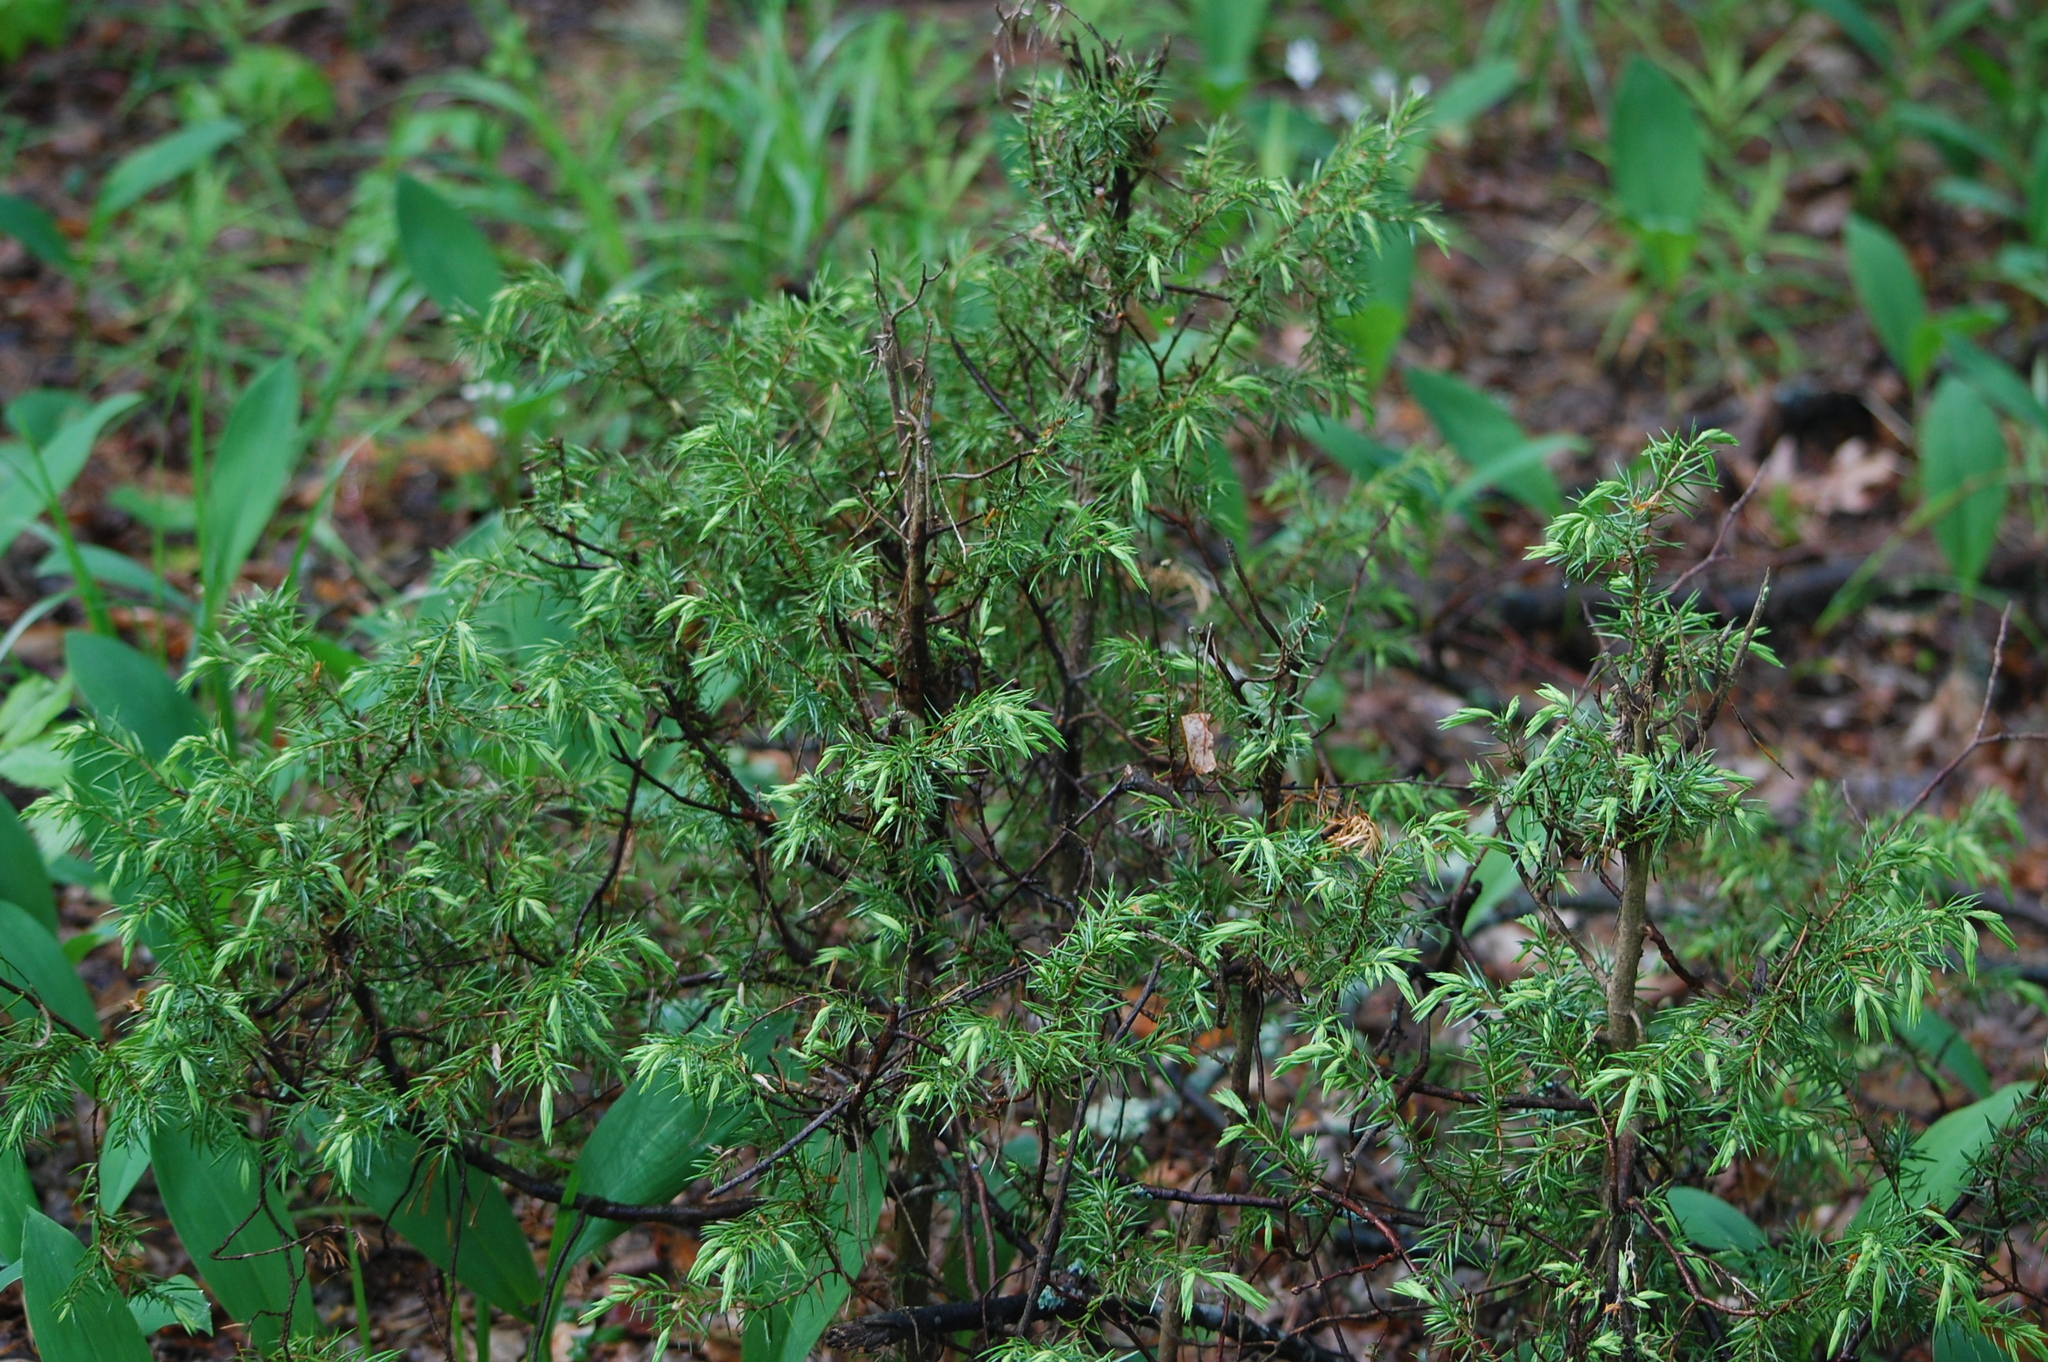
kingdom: Plantae
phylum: Tracheophyta
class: Pinopsida
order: Pinales
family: Cupressaceae
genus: Juniperus
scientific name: Juniperus communis
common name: Common juniper
